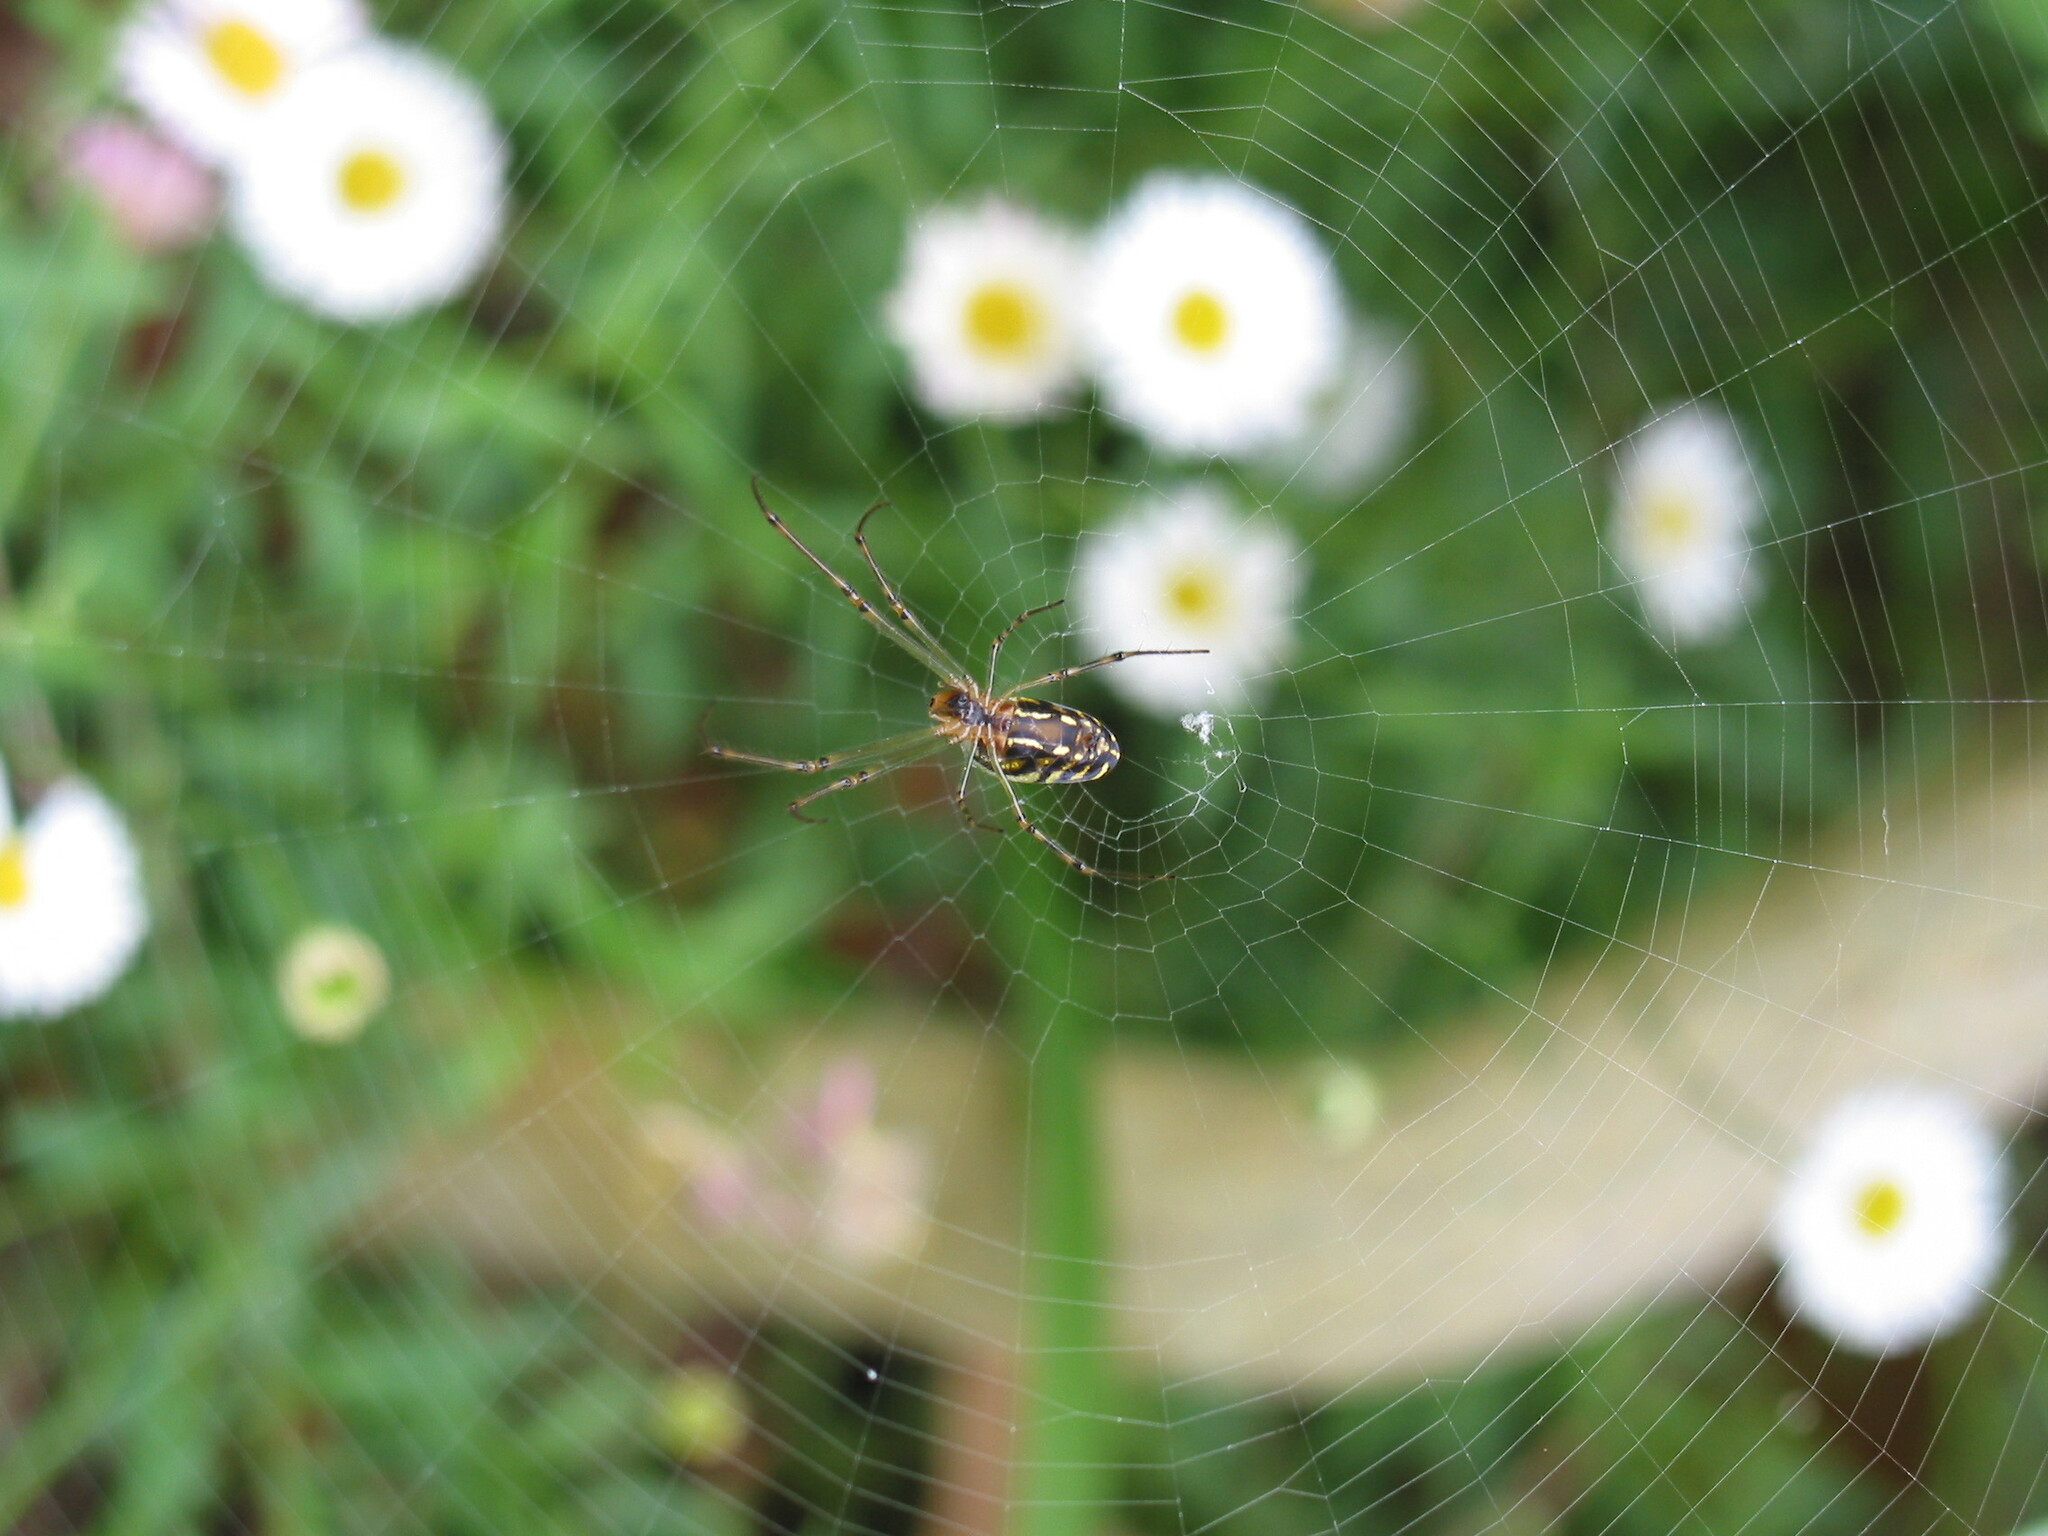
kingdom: Animalia
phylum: Arthropoda
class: Arachnida
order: Araneae
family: Tetragnathidae
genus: Leucauge
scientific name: Leucauge dromedaria
